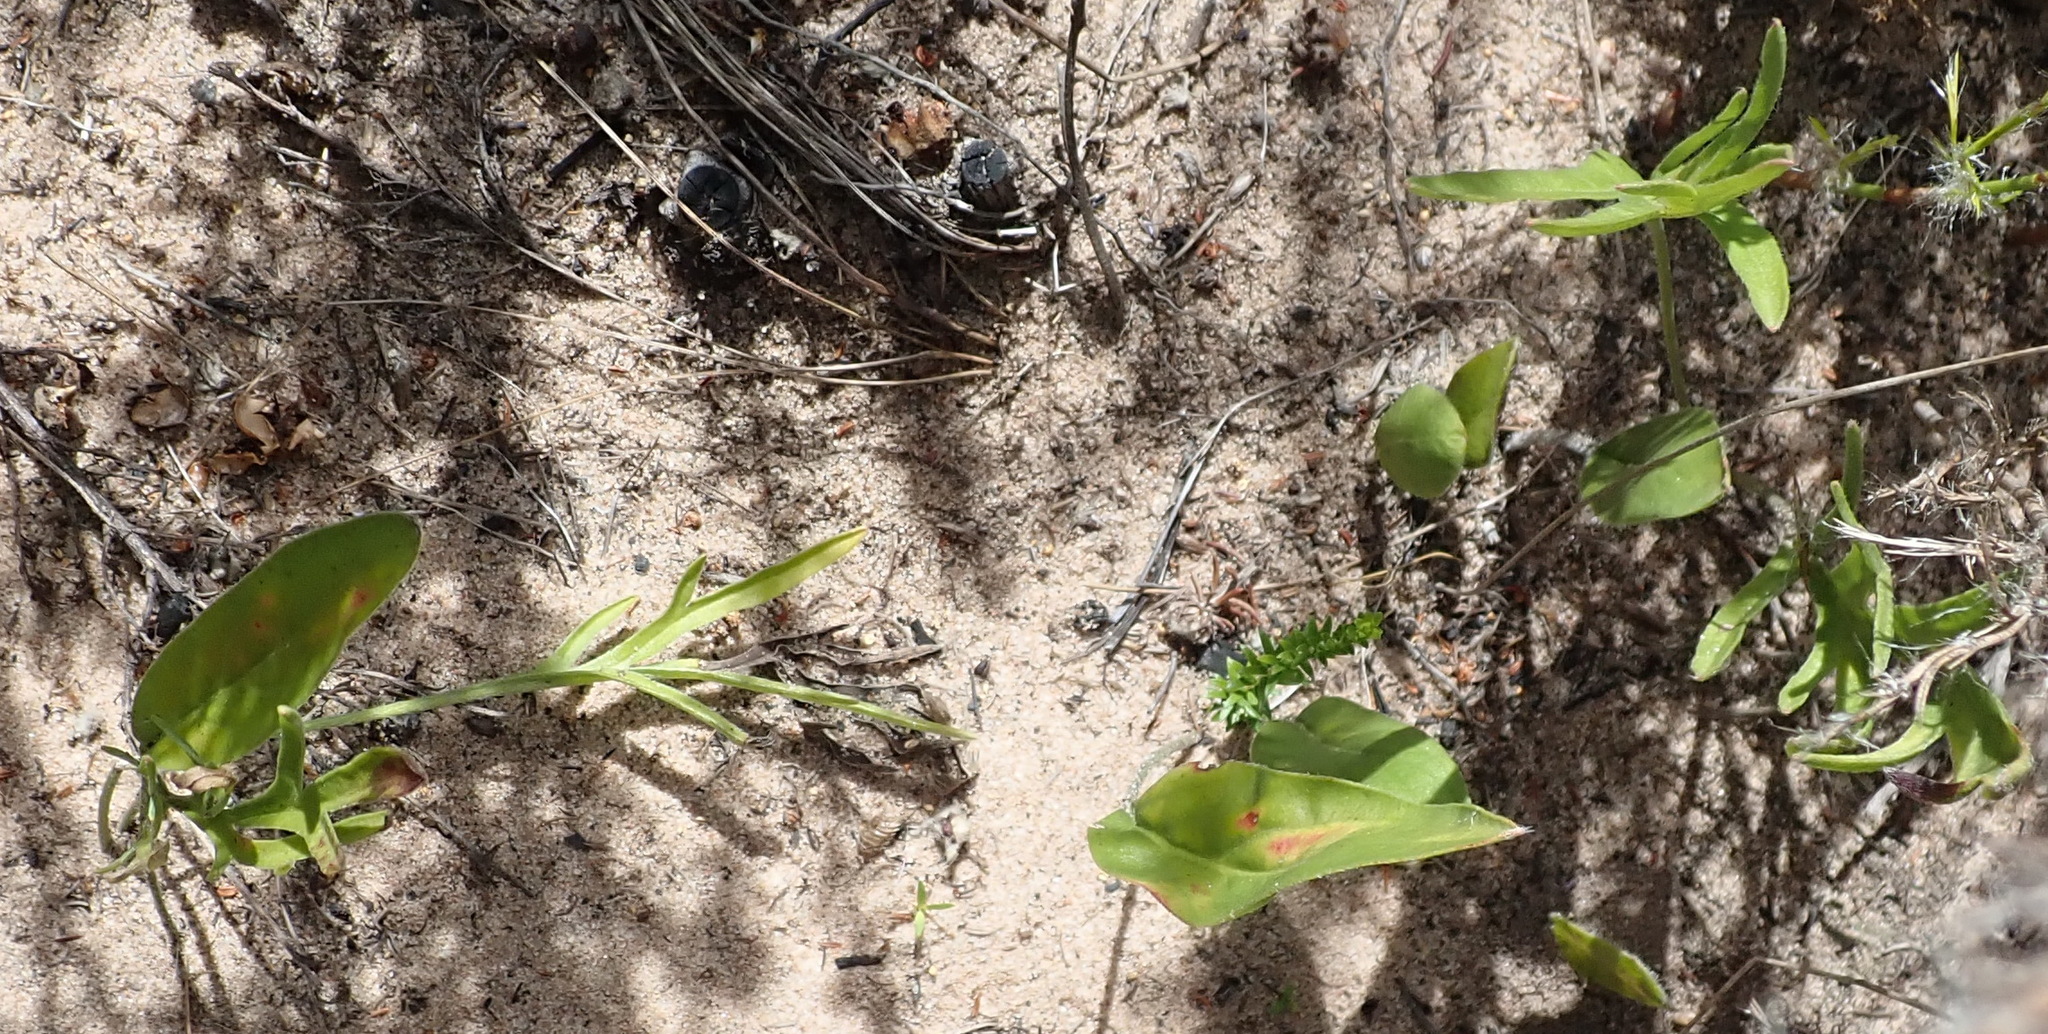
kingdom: Plantae
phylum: Tracheophyta
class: Magnoliopsida
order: Geraniales
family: Geraniaceae
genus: Pelargonium
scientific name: Pelargonium dipetalum
